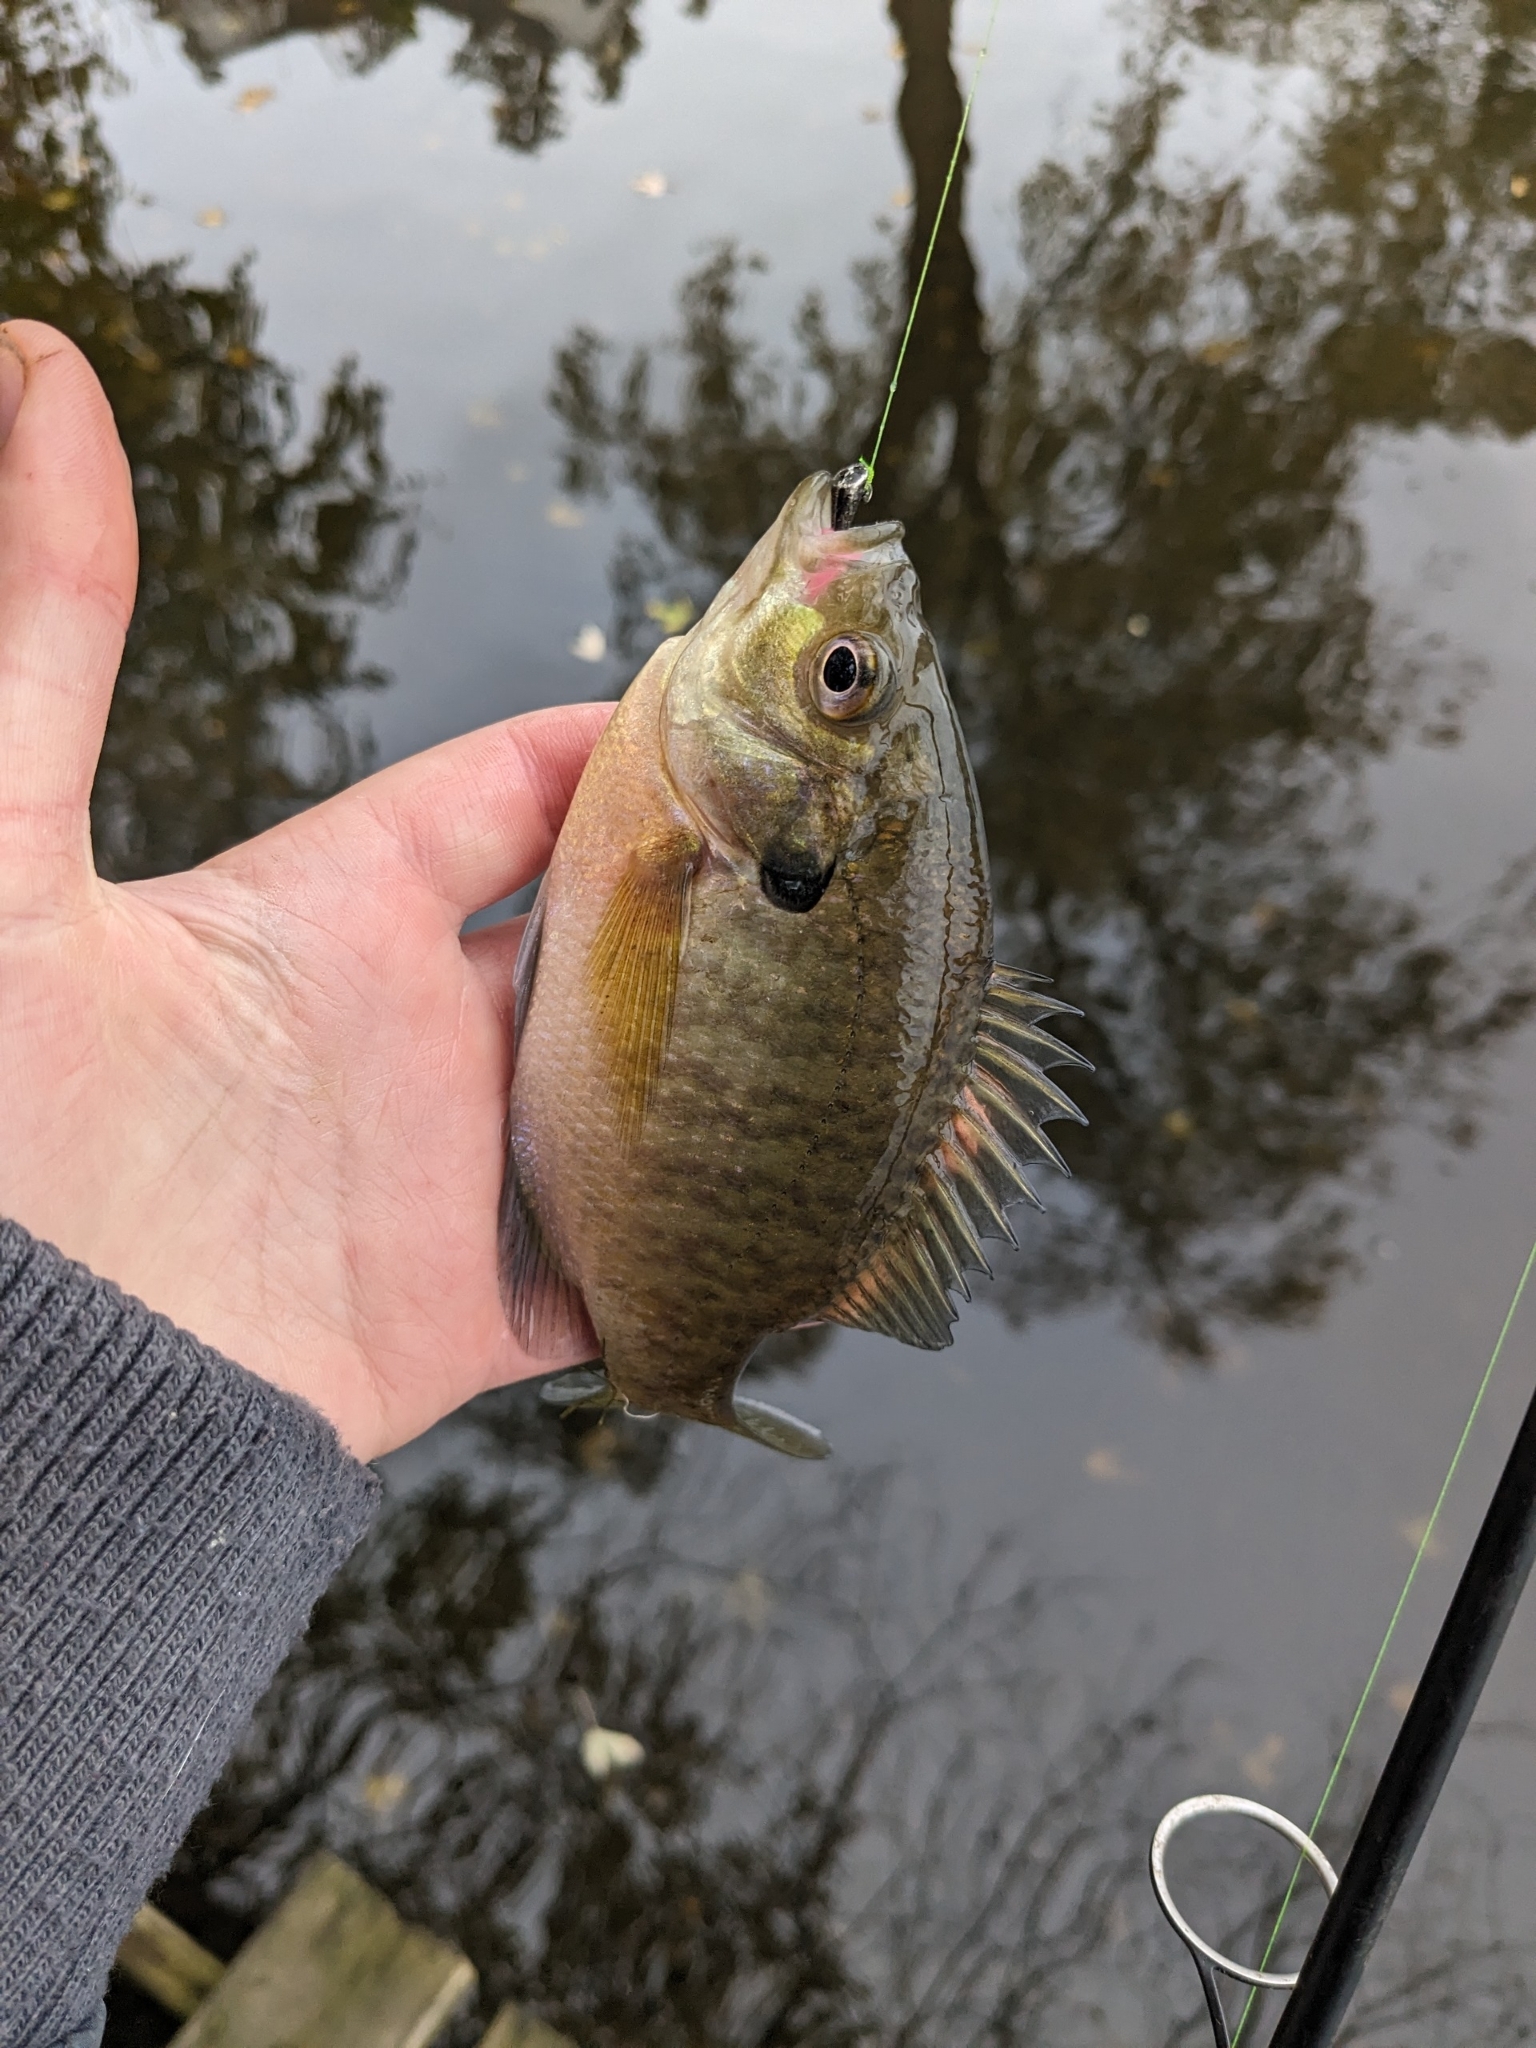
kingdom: Animalia
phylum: Chordata
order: Perciformes
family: Centrarchidae
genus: Lepomis
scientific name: Lepomis macrochirus
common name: Bluegill
